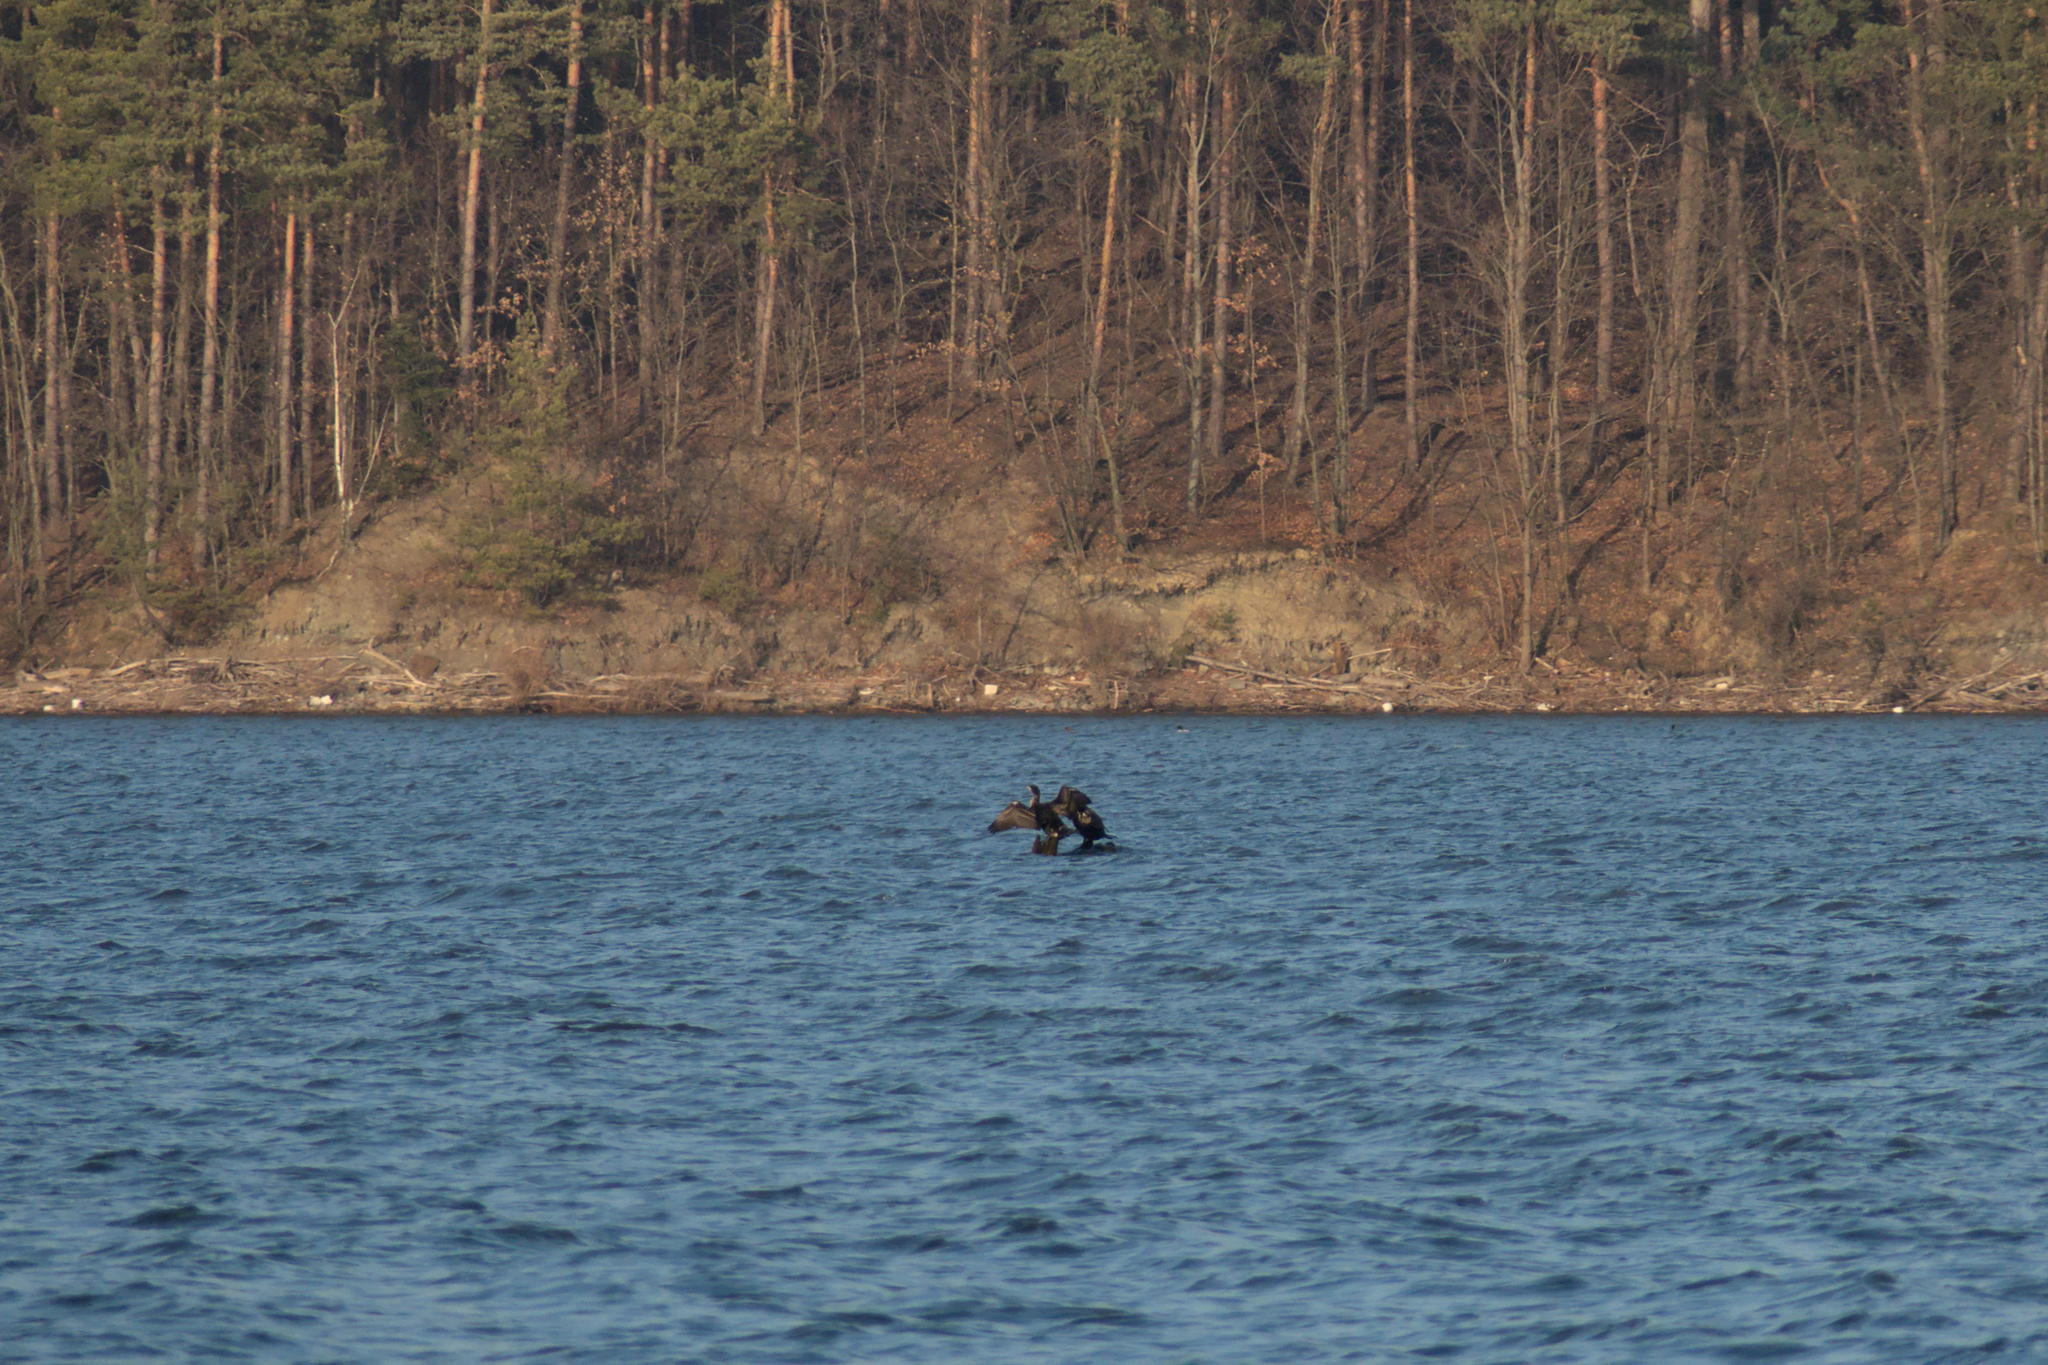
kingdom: Animalia
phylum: Chordata
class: Aves
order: Suliformes
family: Phalacrocoracidae
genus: Phalacrocorax
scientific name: Phalacrocorax carbo
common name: Great cormorant
